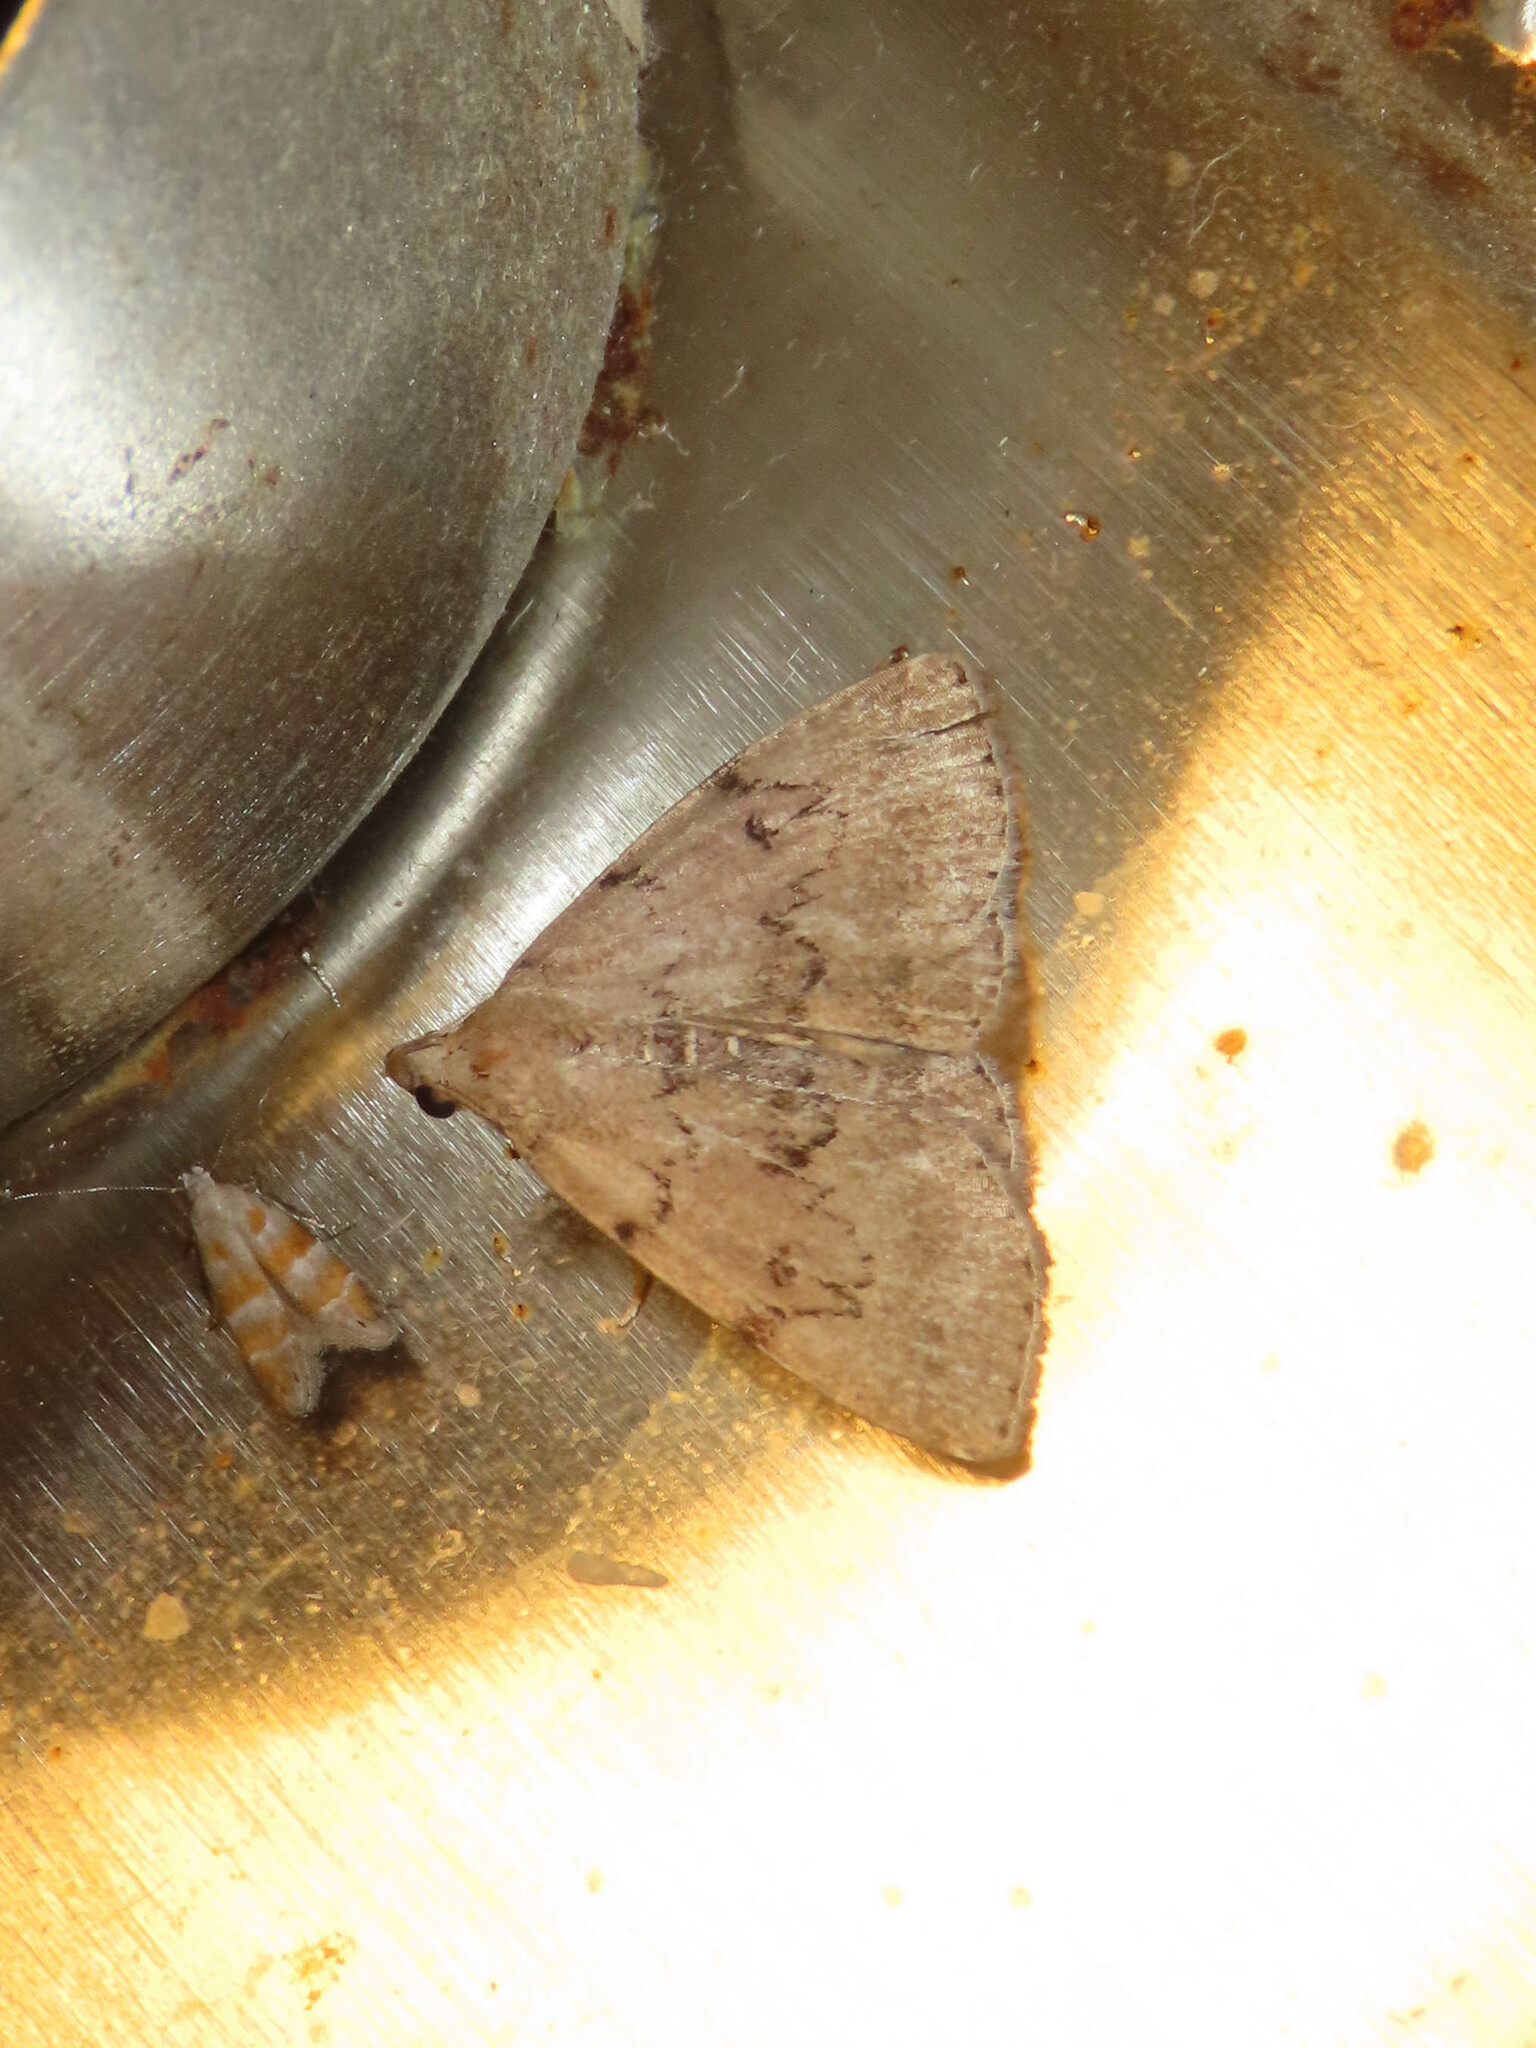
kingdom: Animalia
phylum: Arthropoda
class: Insecta
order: Lepidoptera
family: Erebidae
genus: Zanclognatha
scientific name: Zanclognatha dentata
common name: Toothed fan-foot
